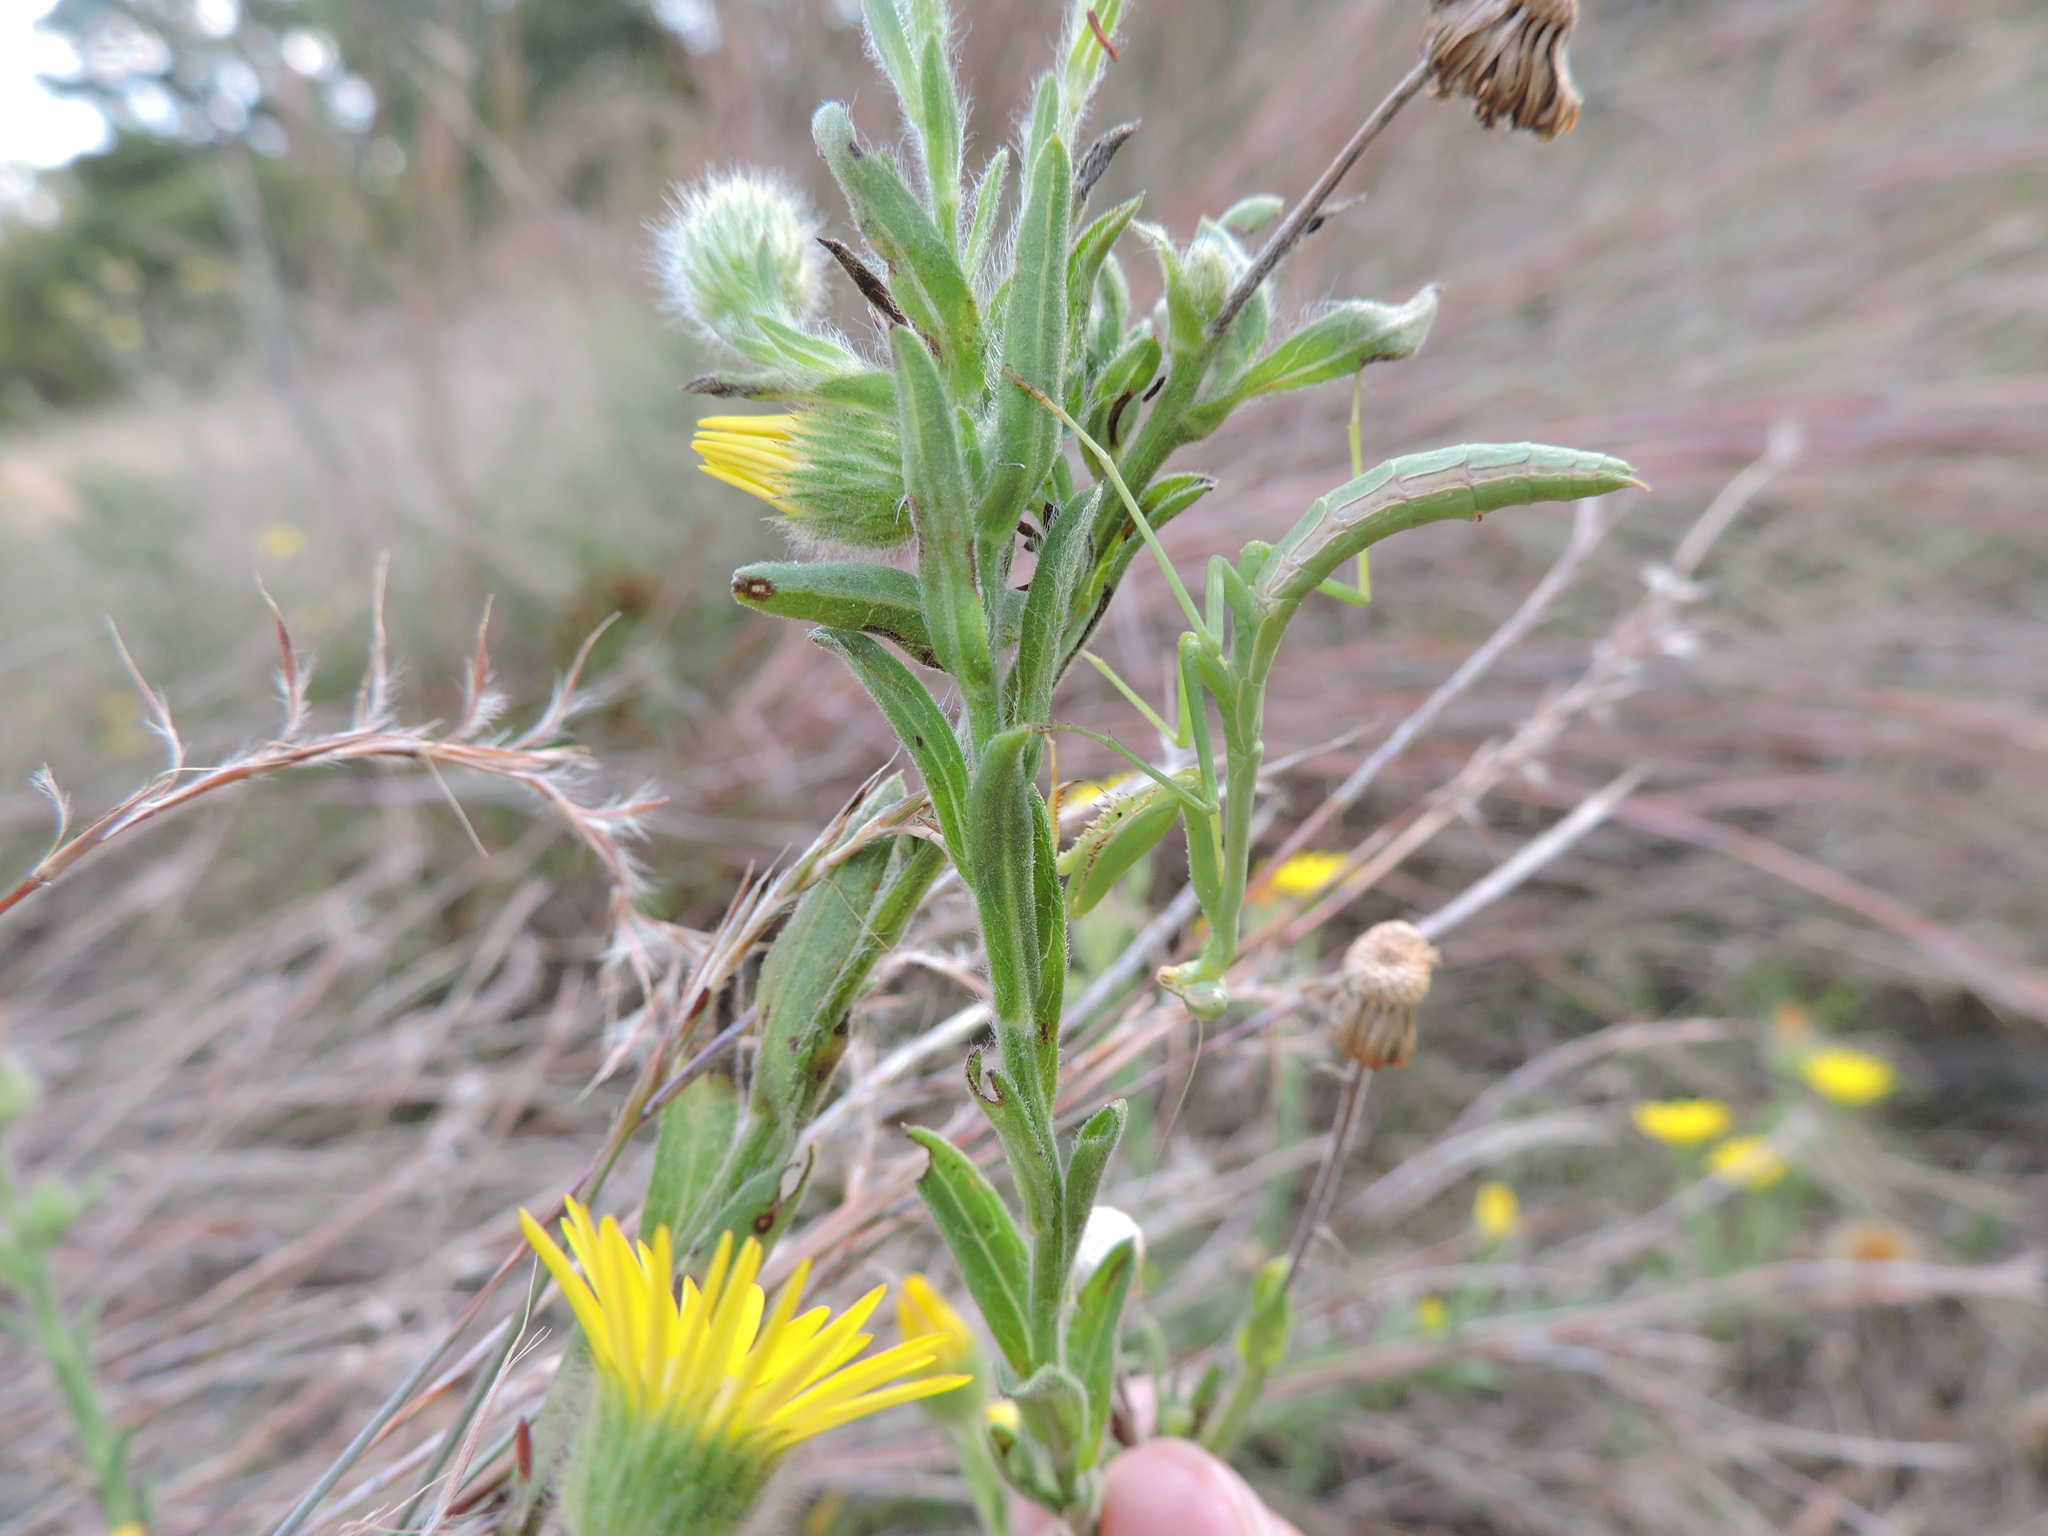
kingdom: Animalia
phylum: Arthropoda
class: Insecta
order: Mantodea
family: Mantidae
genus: Stagmomantis
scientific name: Stagmomantis carolina
